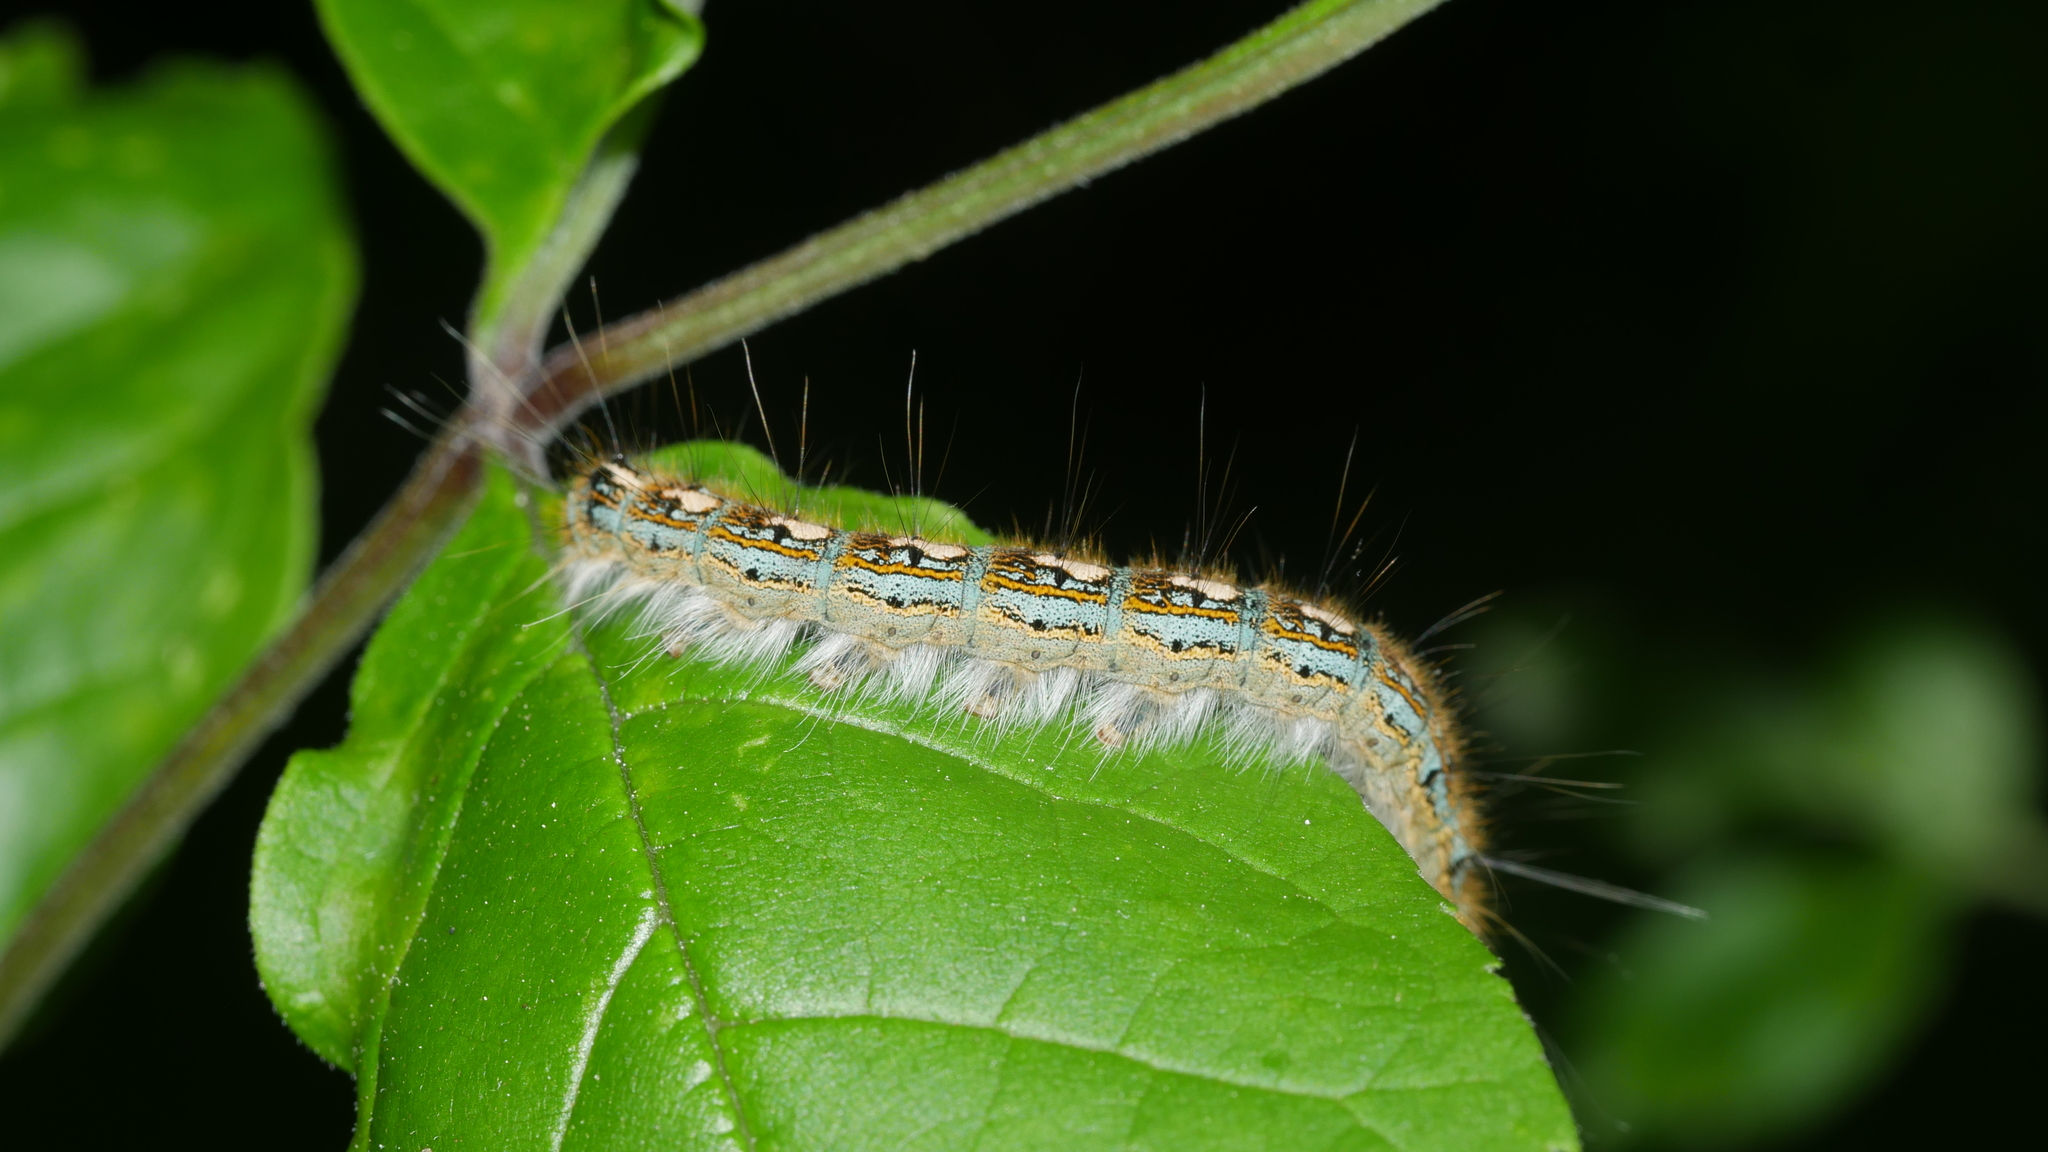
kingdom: Animalia
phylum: Arthropoda
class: Insecta
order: Lepidoptera
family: Lasiocampidae
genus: Malacosoma
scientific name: Malacosoma disstria
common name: Forest tent caterpillar
